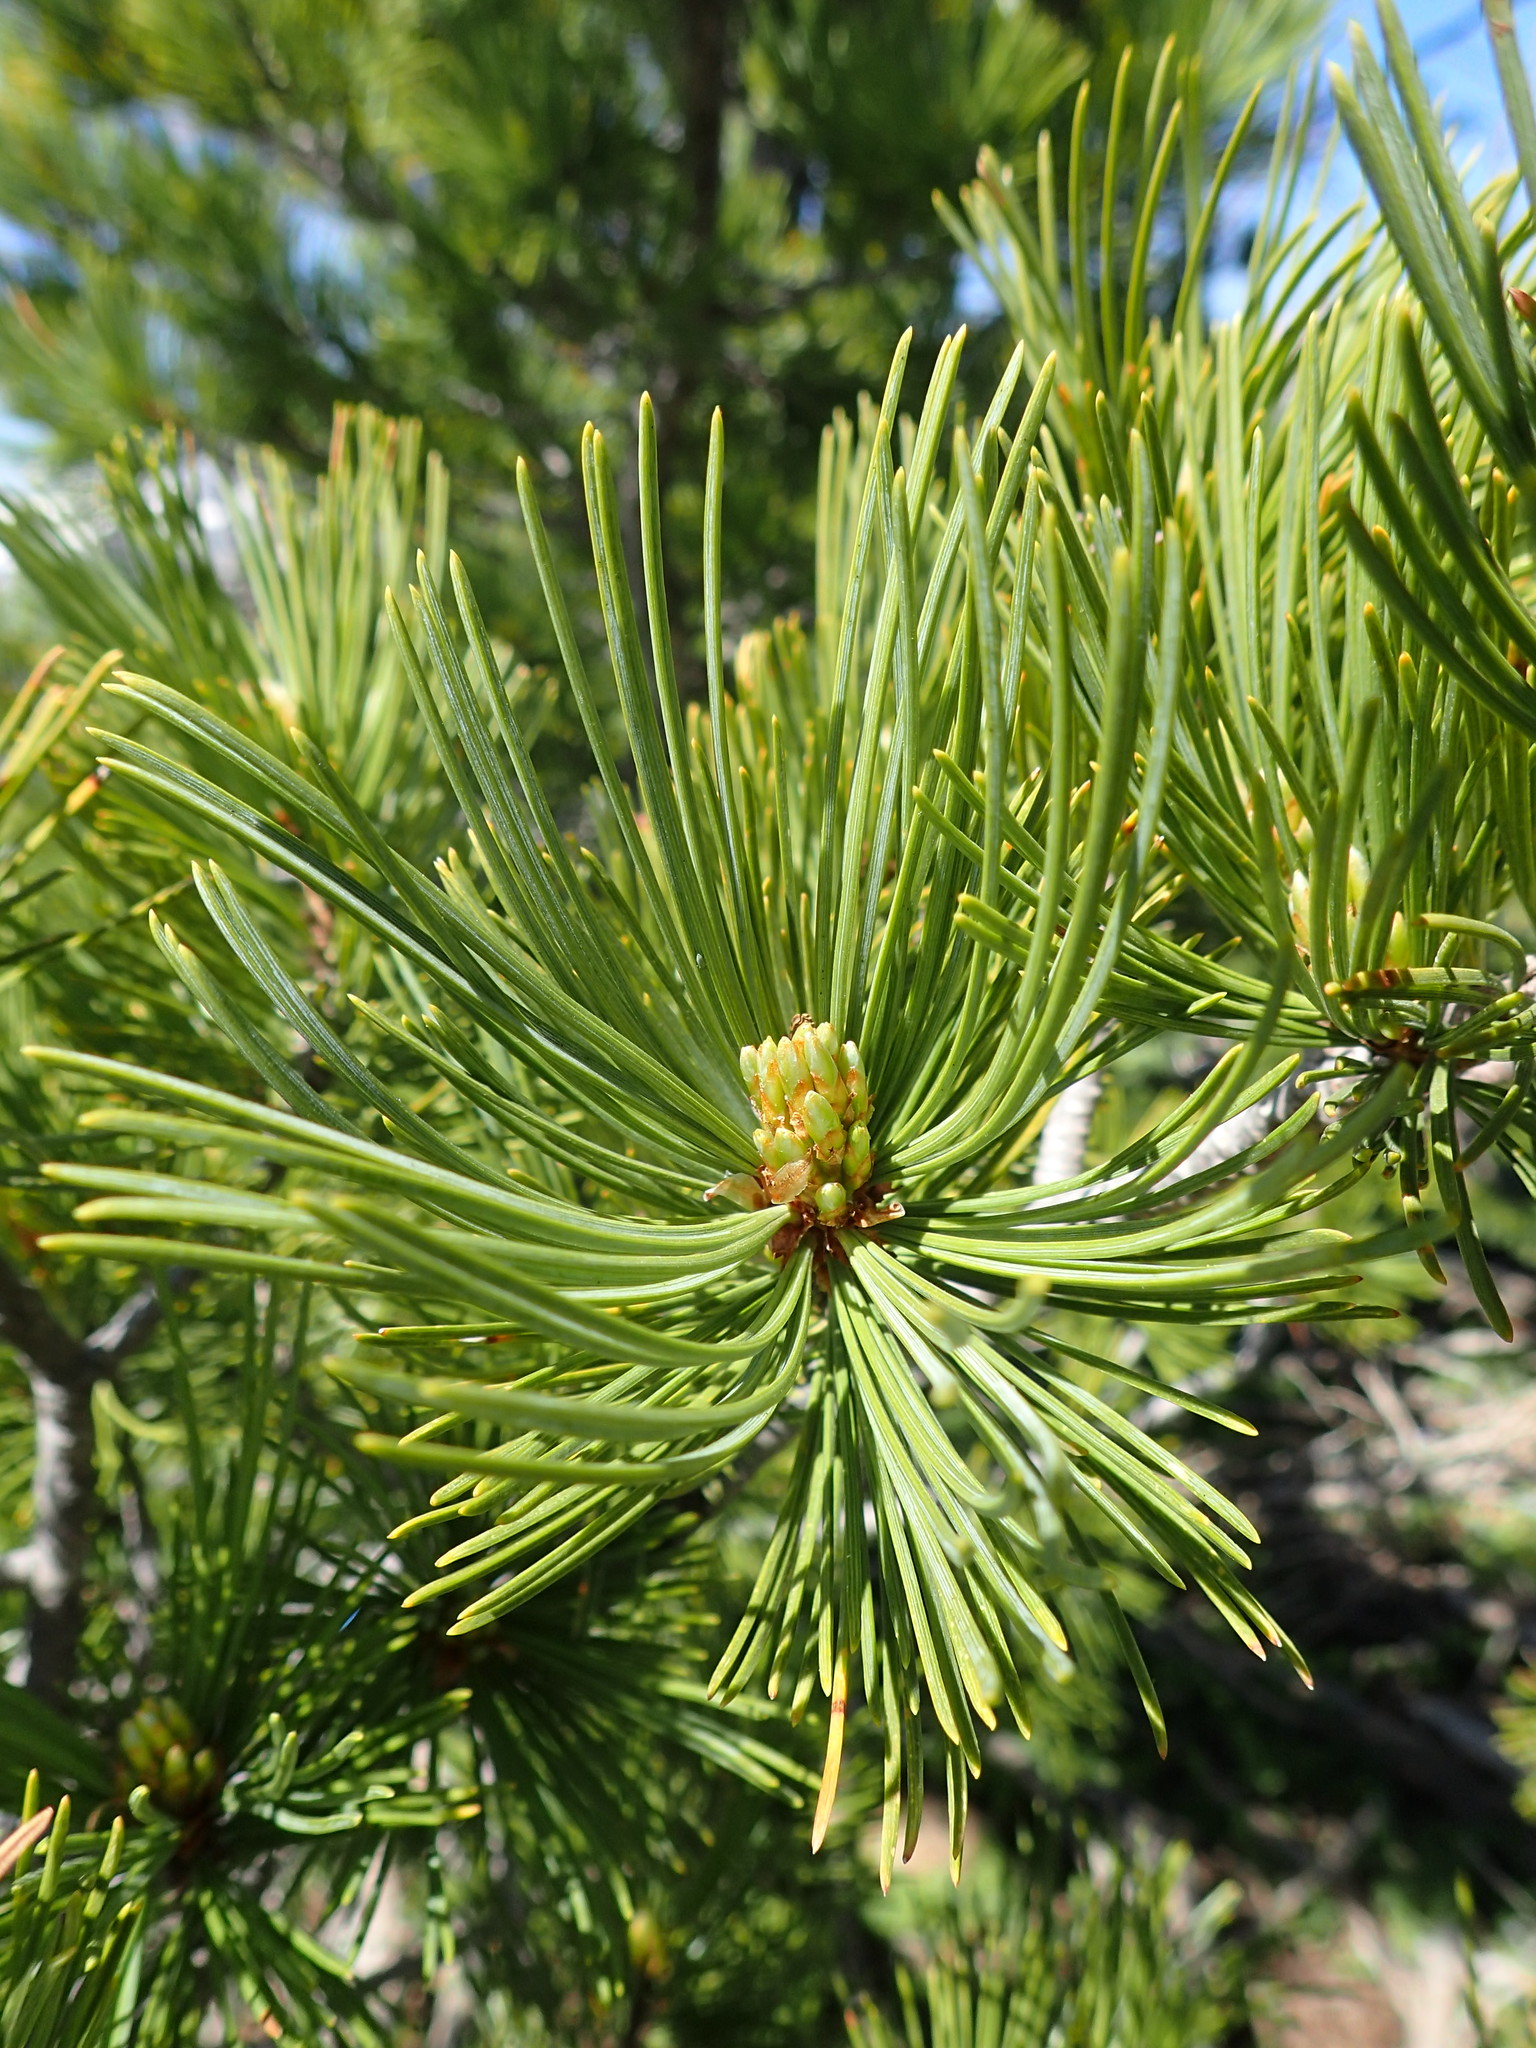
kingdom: Plantae
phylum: Tracheophyta
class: Pinopsida
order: Pinales
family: Pinaceae
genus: Pinus
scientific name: Pinus albicaulis
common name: Whitebark pine
